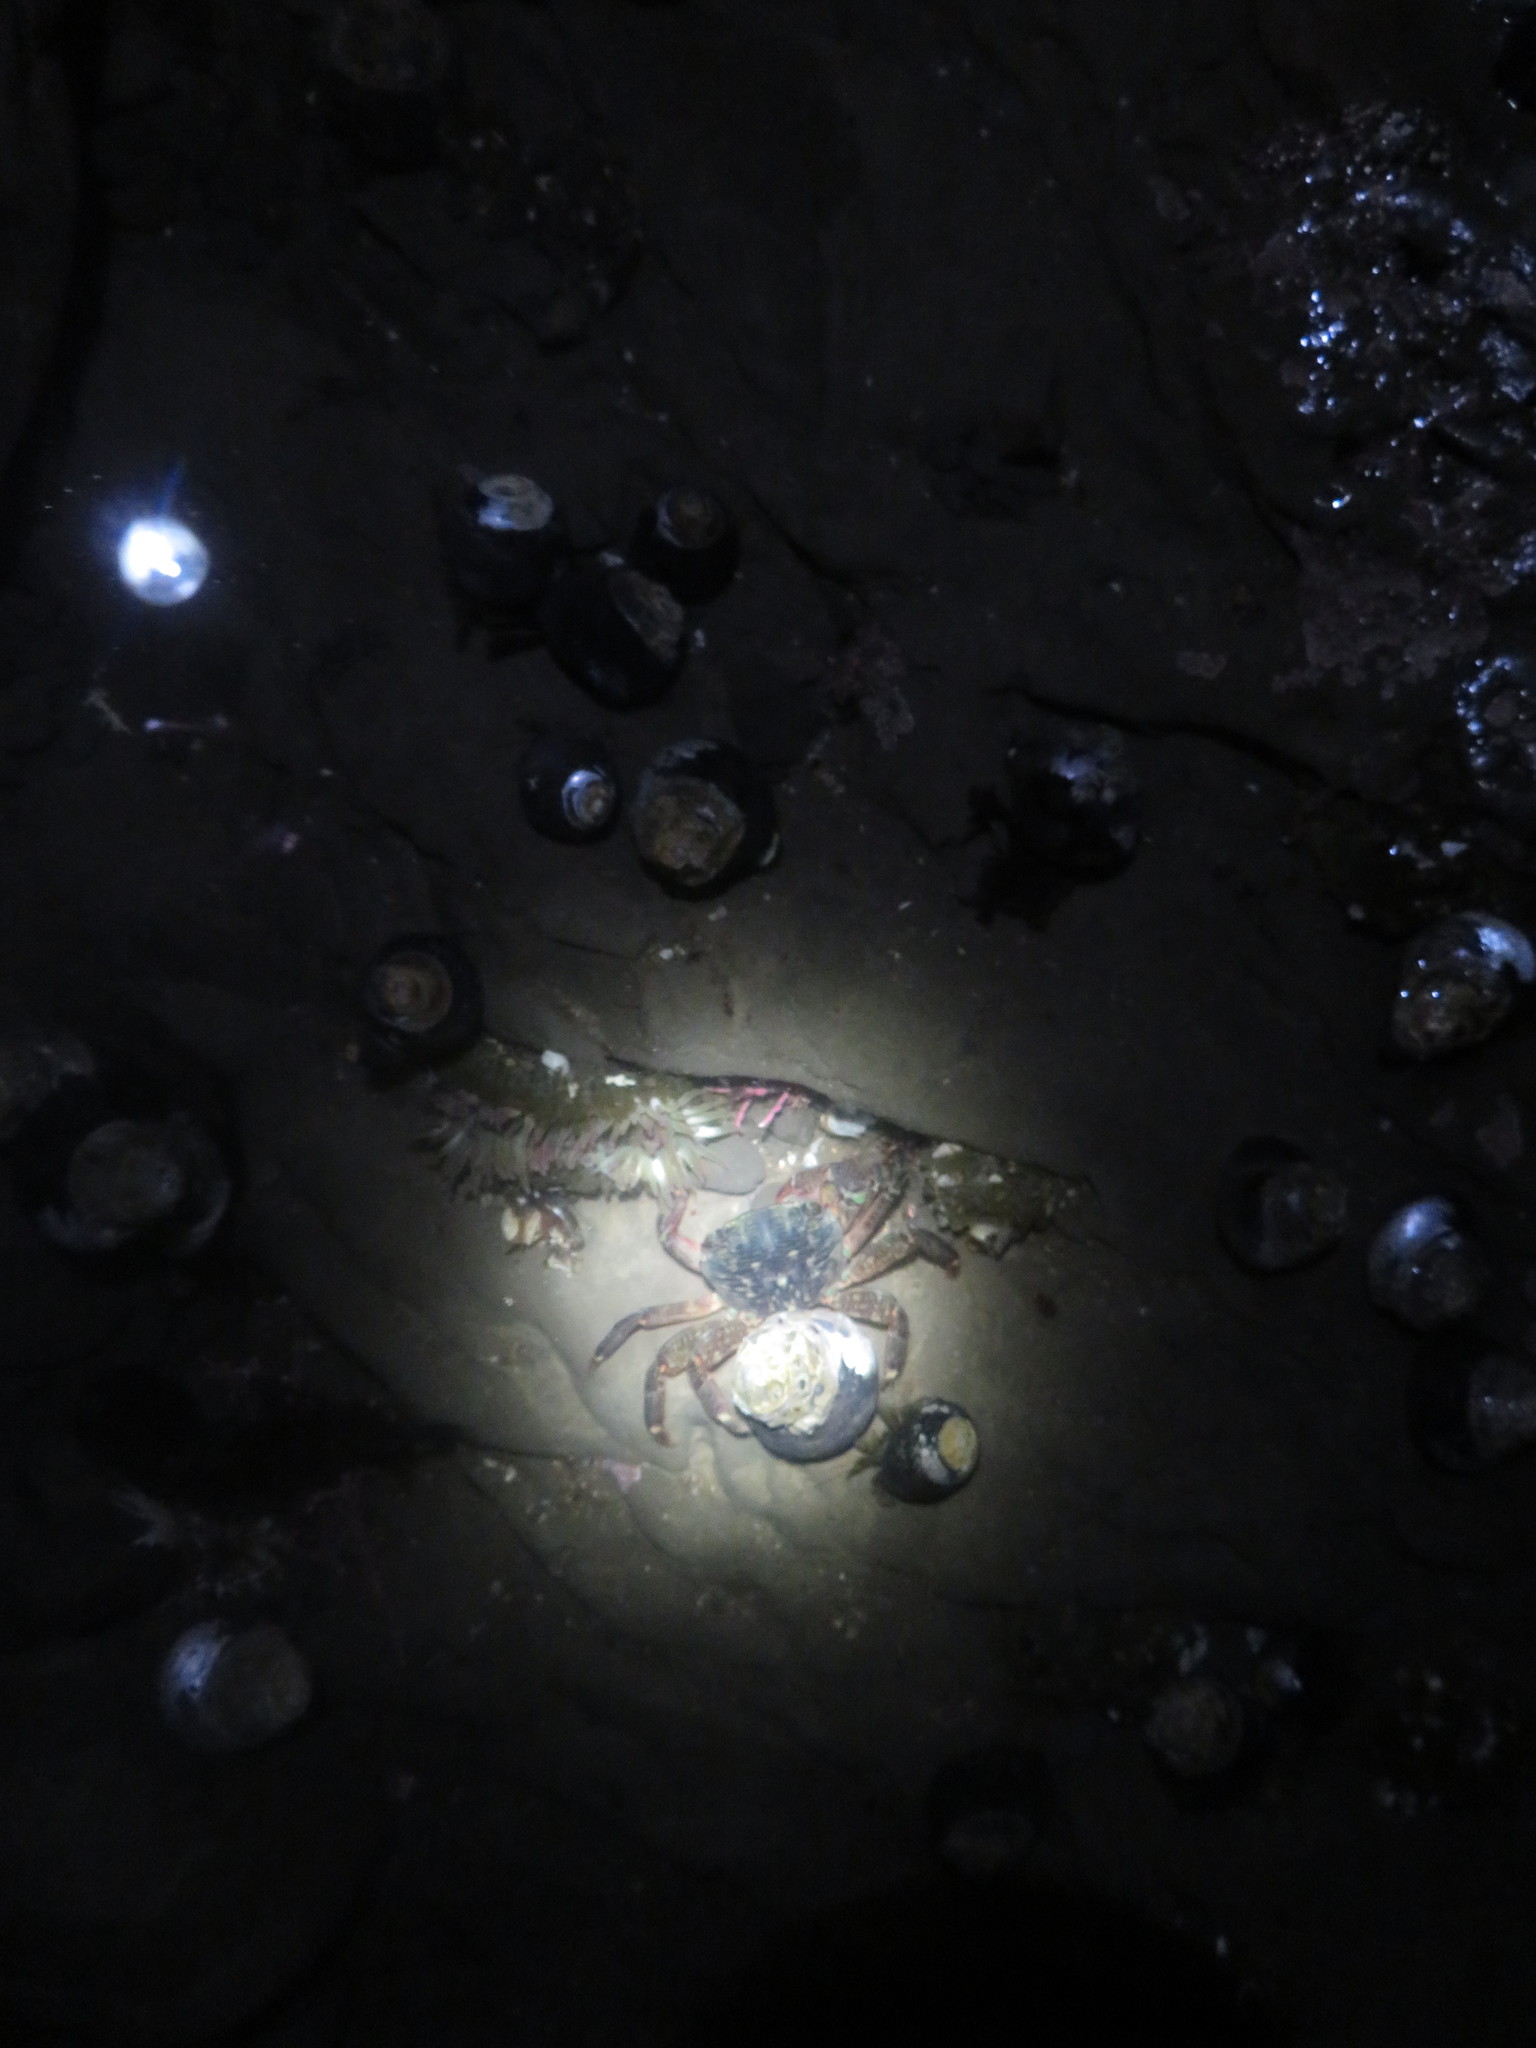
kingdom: Animalia
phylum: Arthropoda
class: Malacostraca
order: Decapoda
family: Grapsidae
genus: Pachygrapsus
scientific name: Pachygrapsus crassipes
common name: Striped shore crab
